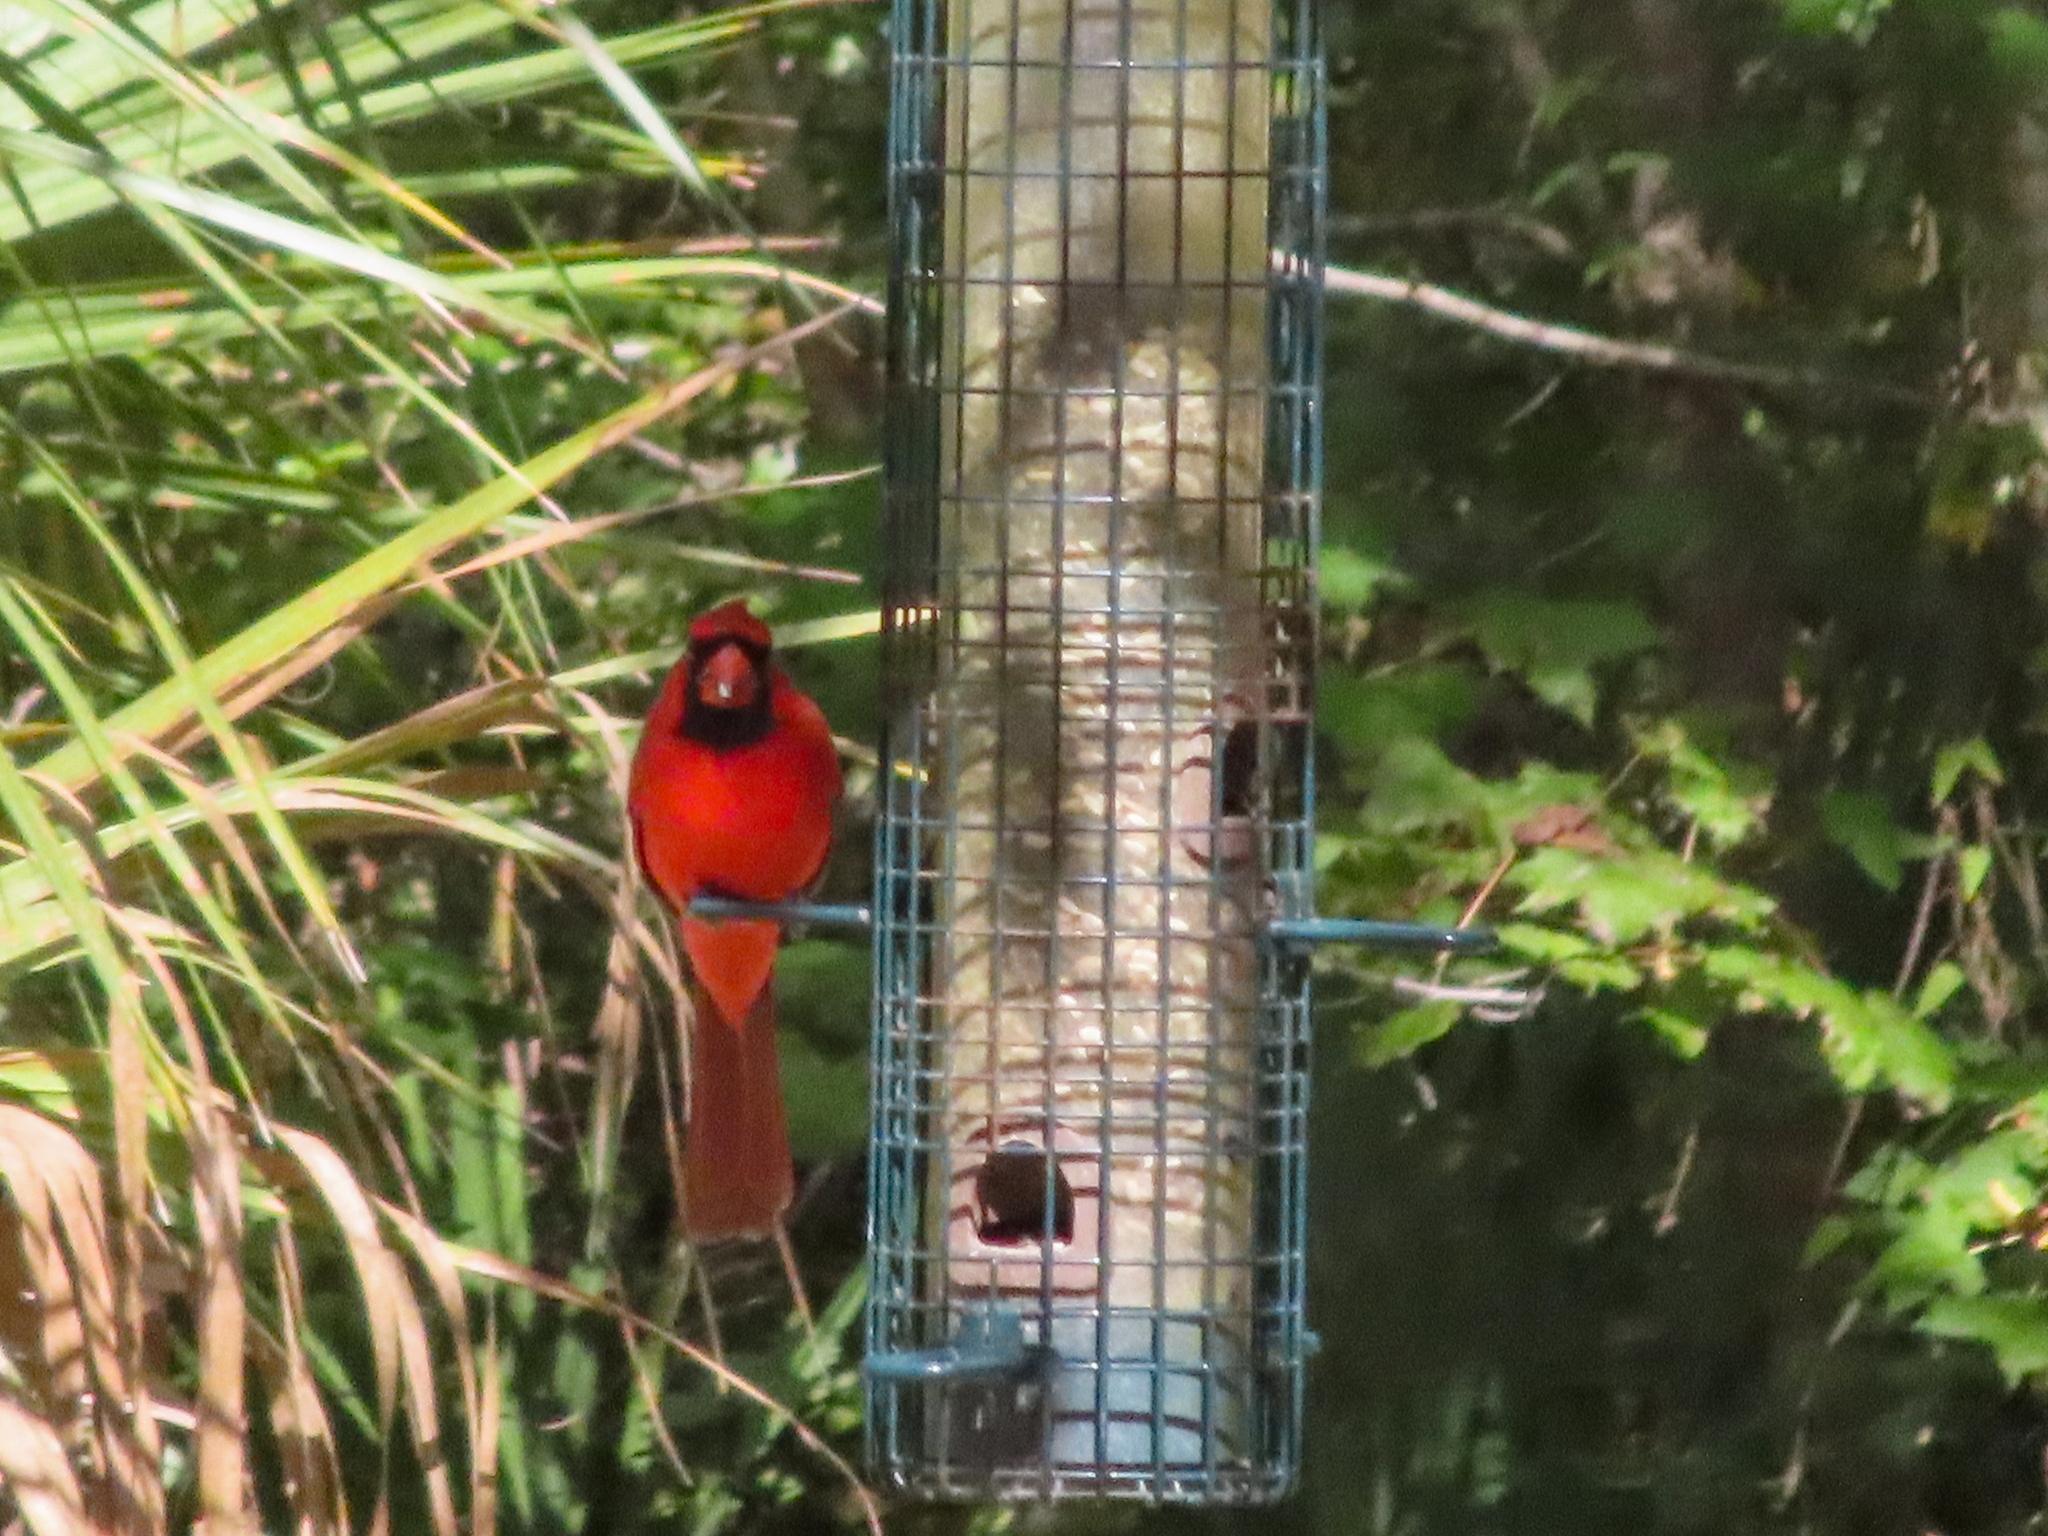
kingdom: Animalia
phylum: Chordata
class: Aves
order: Passeriformes
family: Cardinalidae
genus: Cardinalis
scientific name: Cardinalis cardinalis
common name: Northern cardinal
